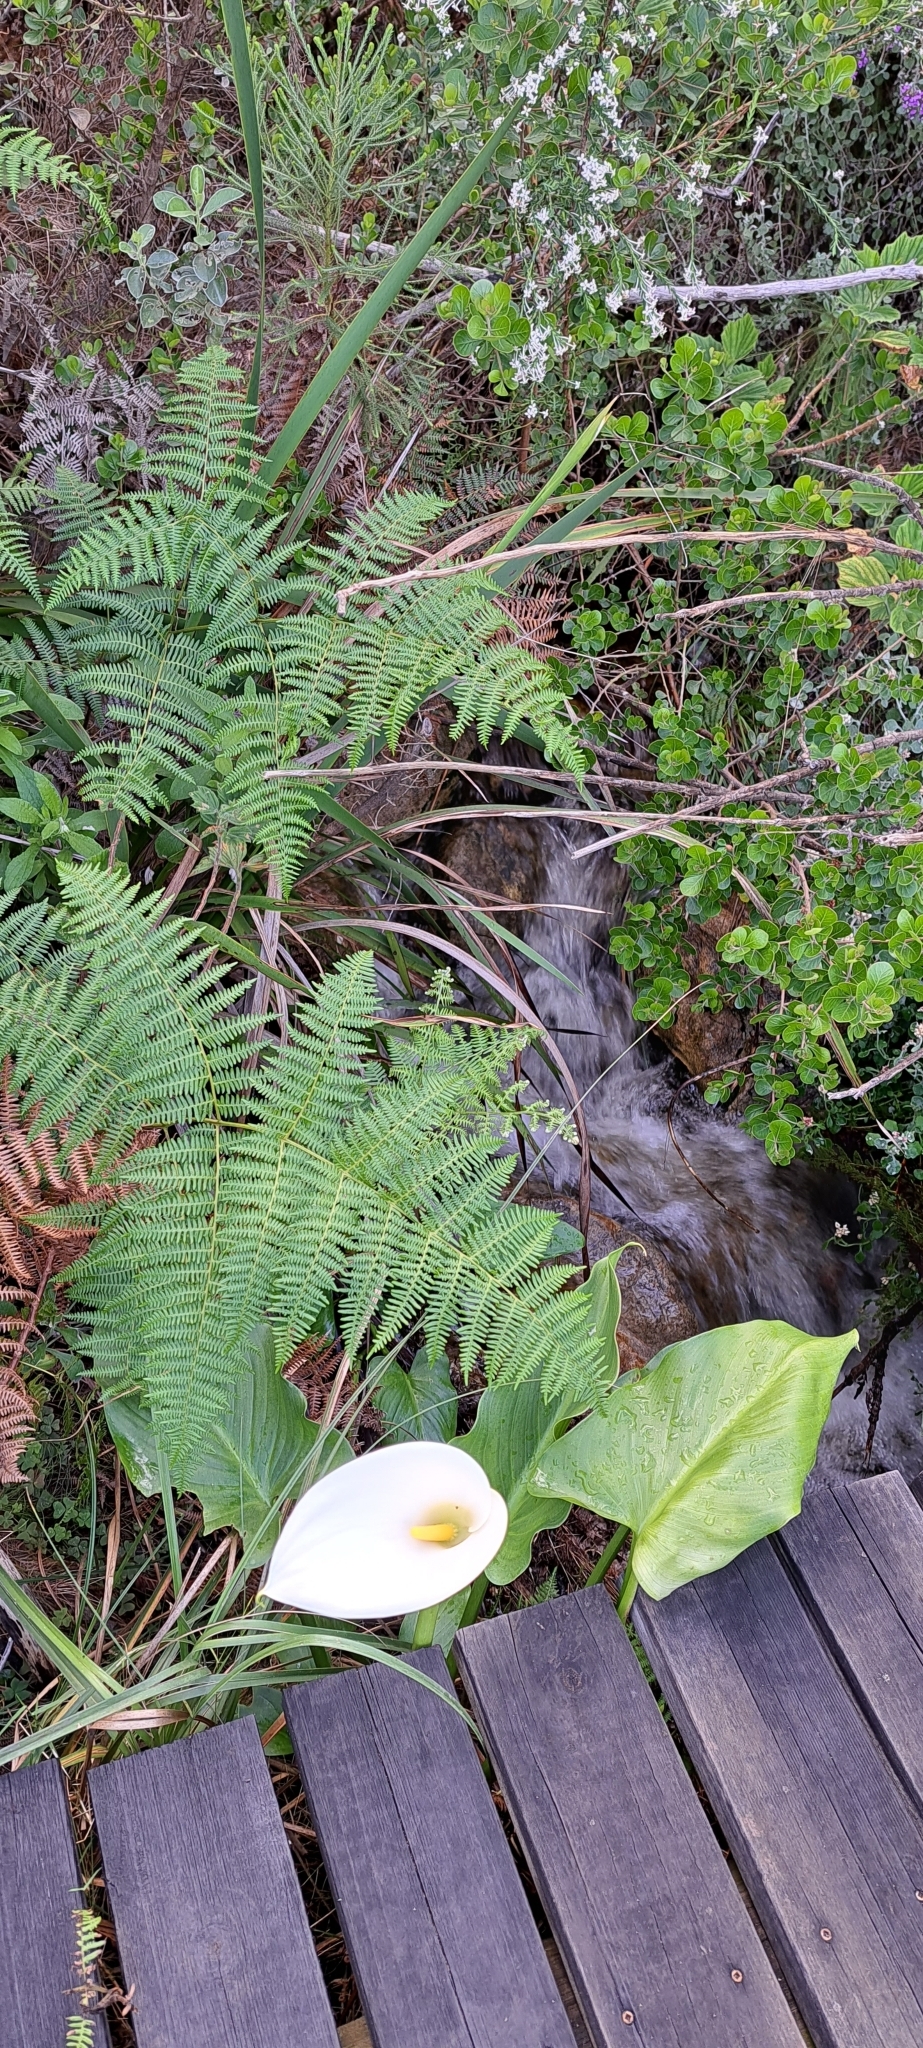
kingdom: Plantae
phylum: Tracheophyta
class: Liliopsida
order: Alismatales
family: Araceae
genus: Zantedeschia
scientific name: Zantedeschia aethiopica
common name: Altar-lily
